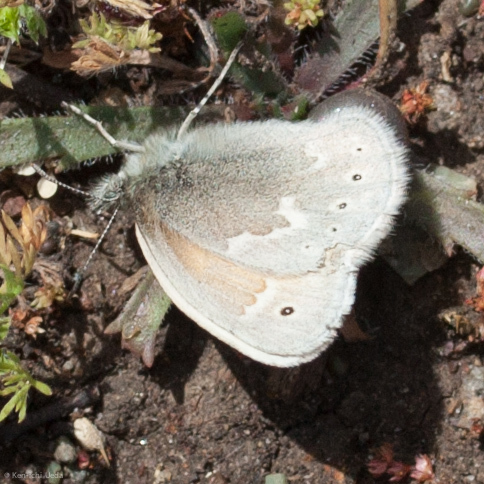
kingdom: Animalia
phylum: Arthropoda
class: Insecta
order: Lepidoptera
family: Nymphalidae
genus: Coenonympha
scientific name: Coenonympha california
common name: Common ringlet
